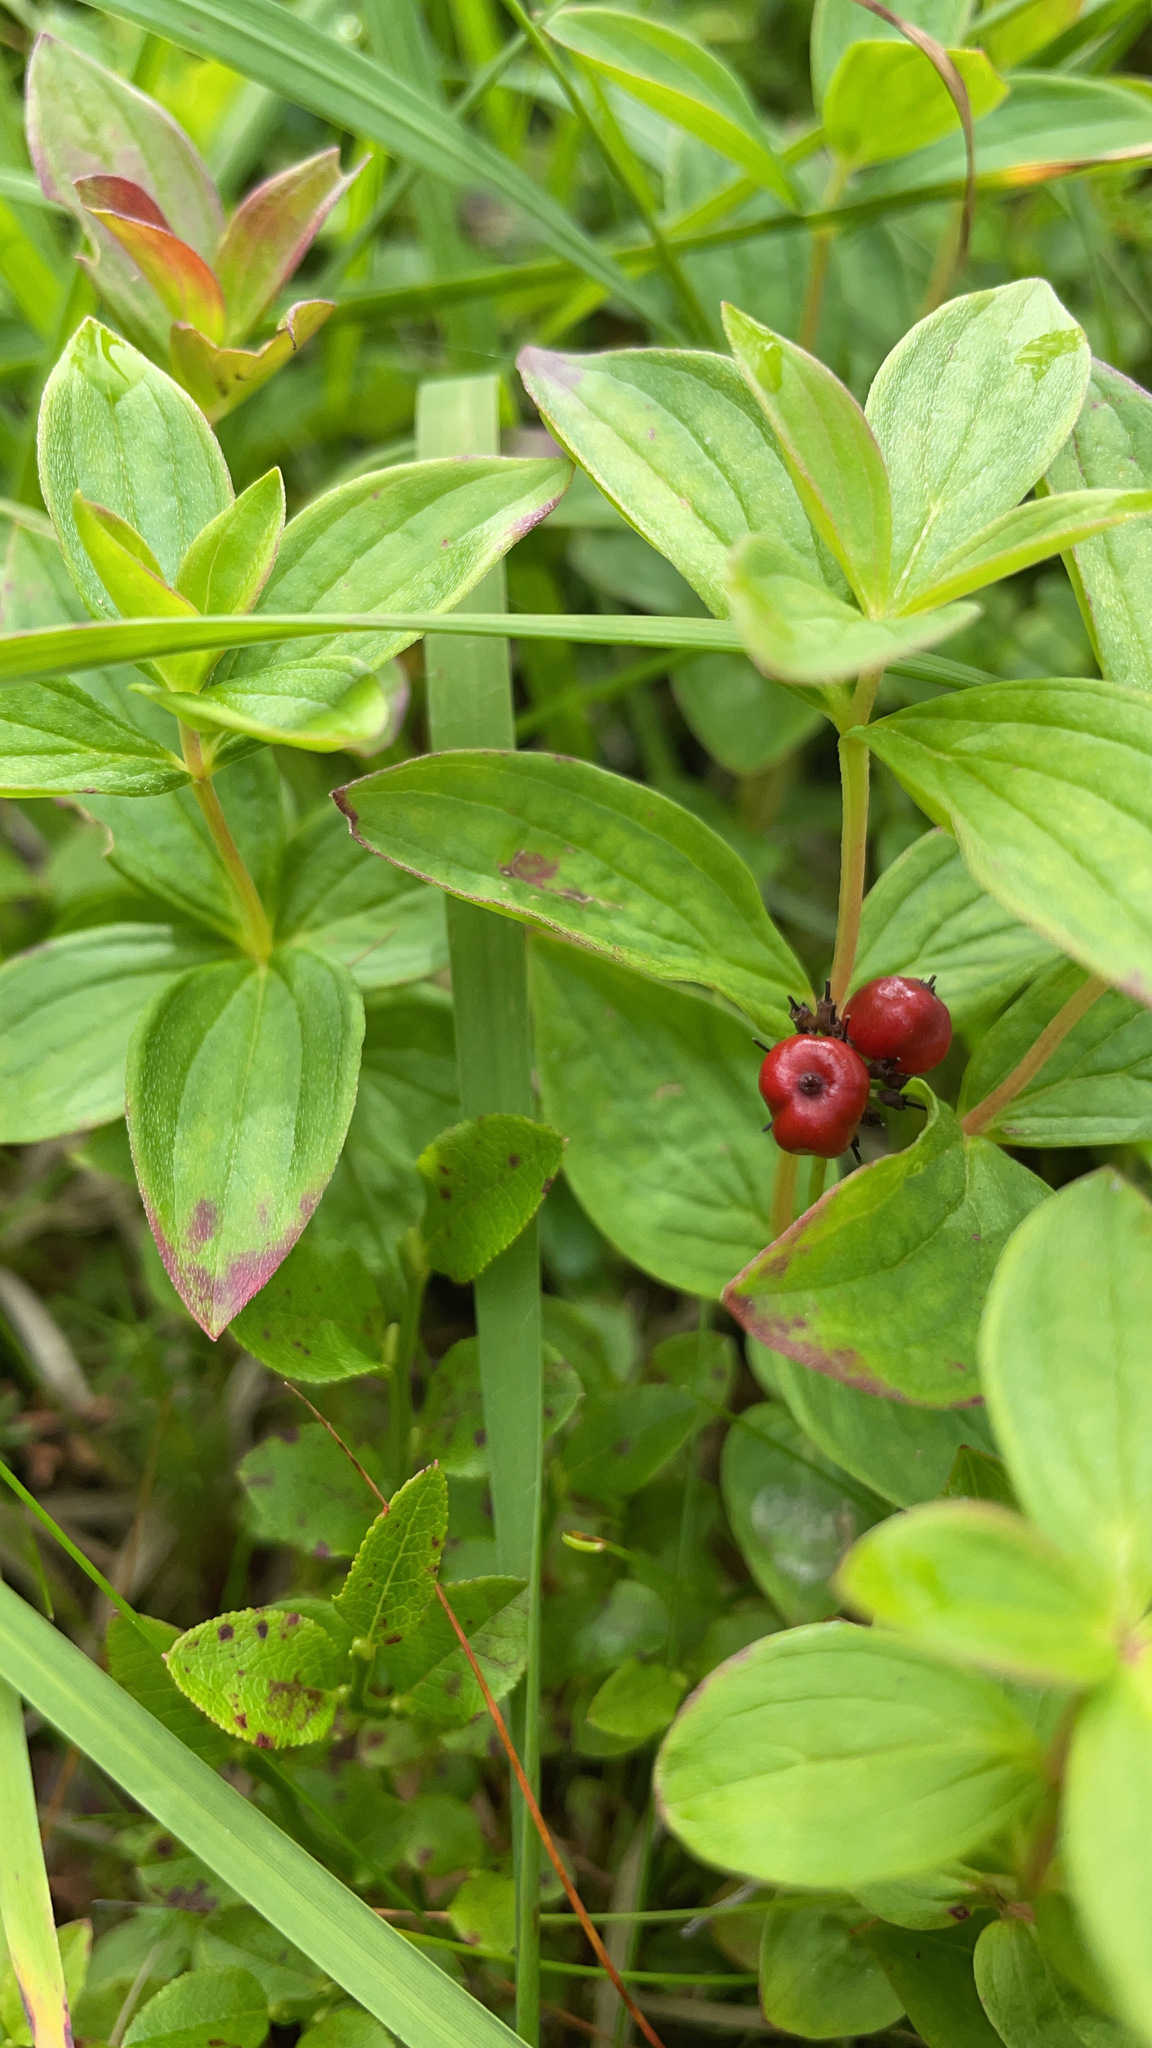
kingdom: Plantae
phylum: Tracheophyta
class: Magnoliopsida
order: Cornales
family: Cornaceae
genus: Cornus
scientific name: Cornus suecica
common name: Dwarf cornel
